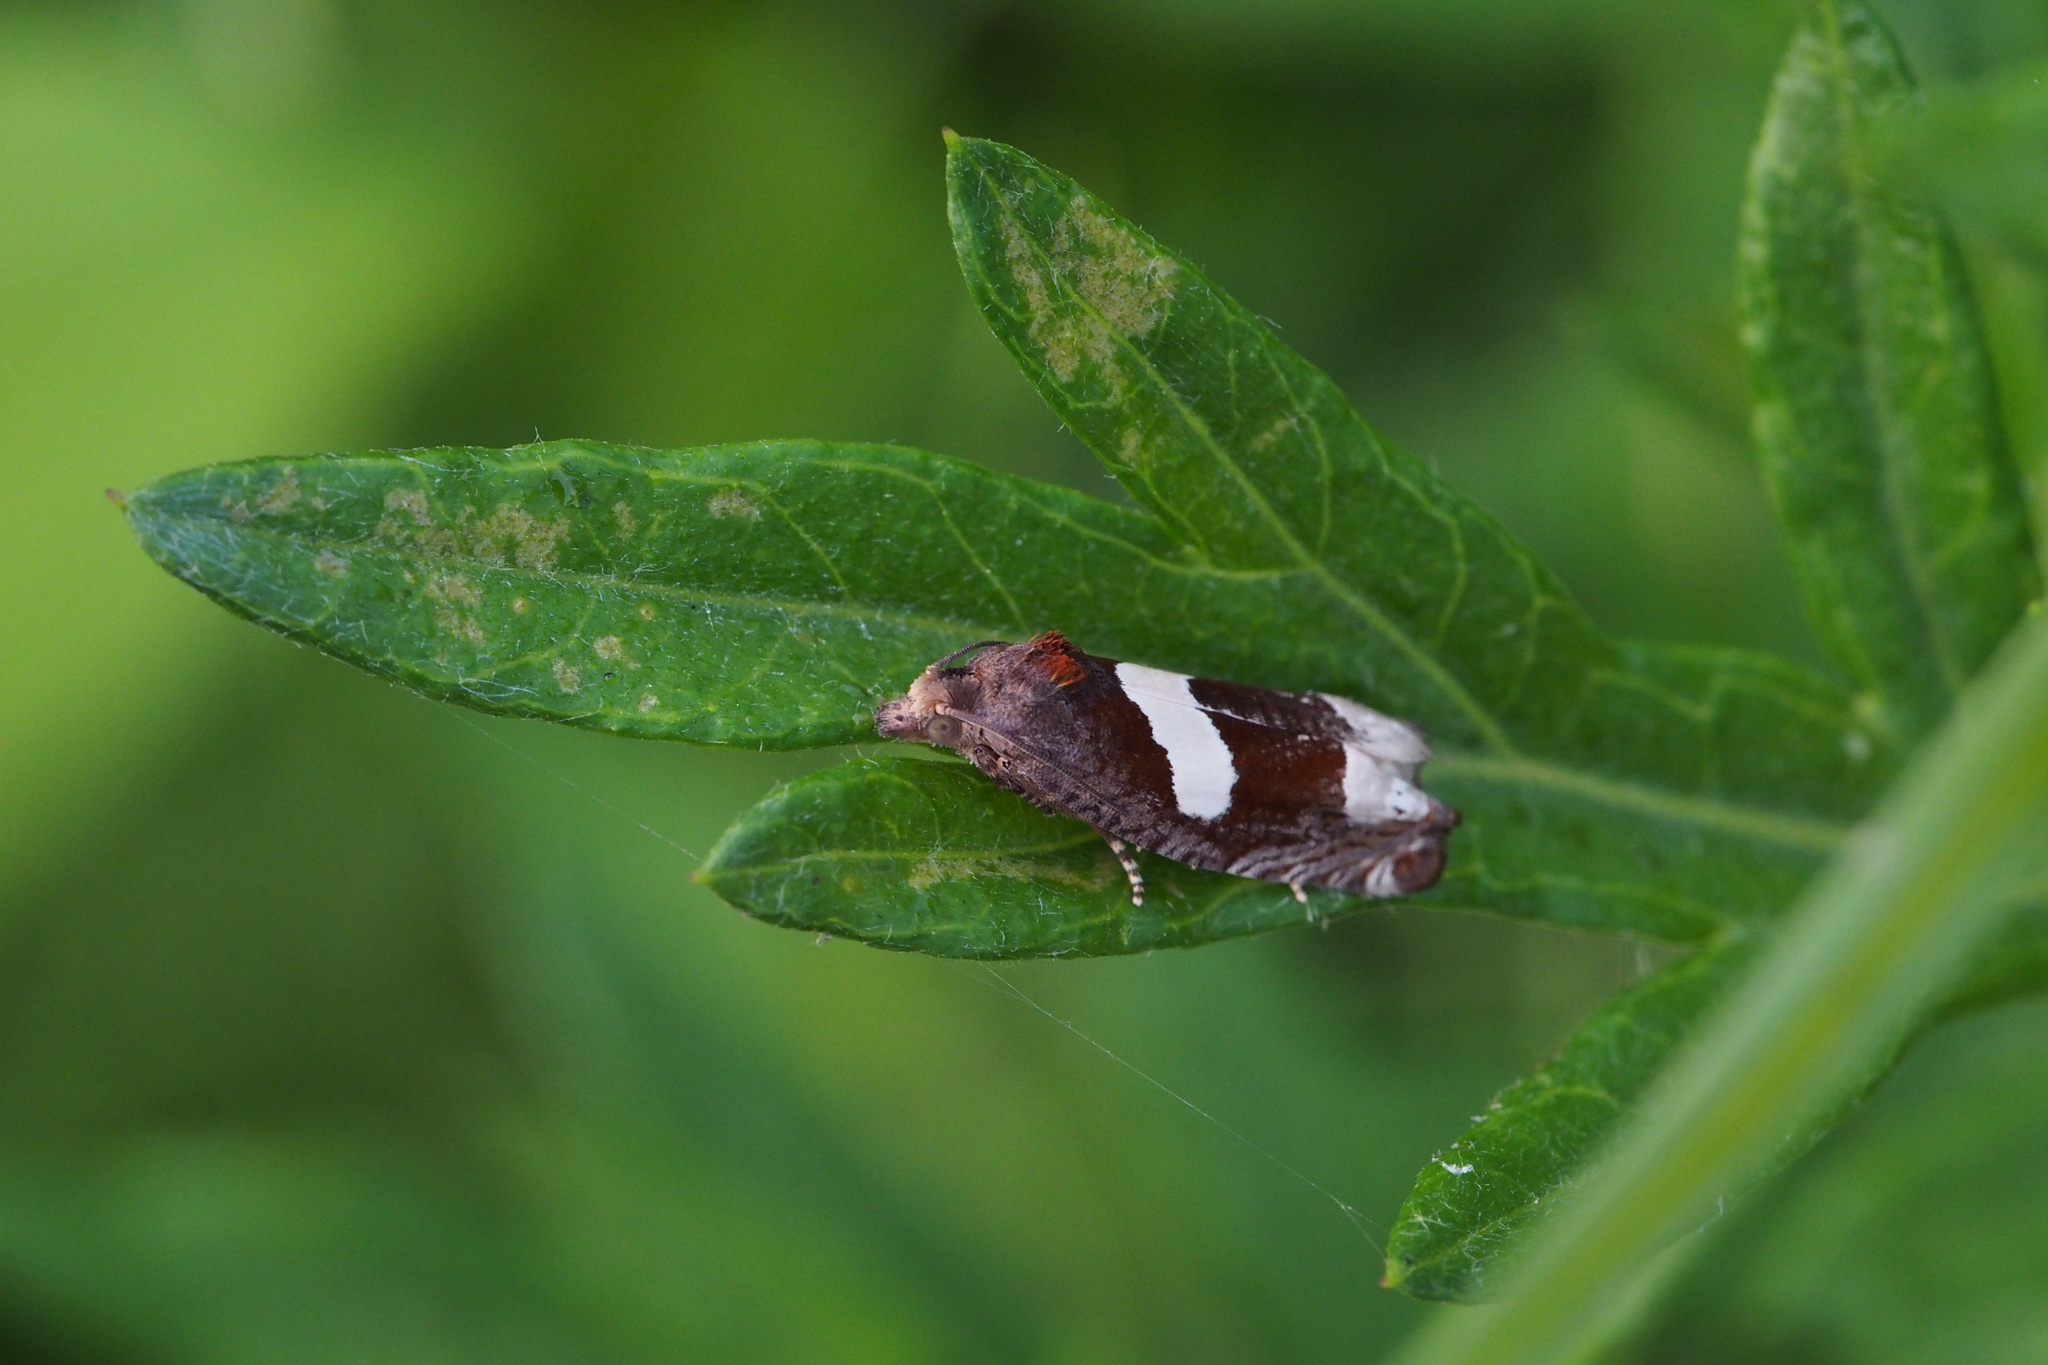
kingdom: Animalia
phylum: Arthropoda
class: Insecta
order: Lepidoptera
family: Tortricidae
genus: Epiblema
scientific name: Epiblema foenella
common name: White-foot bell
